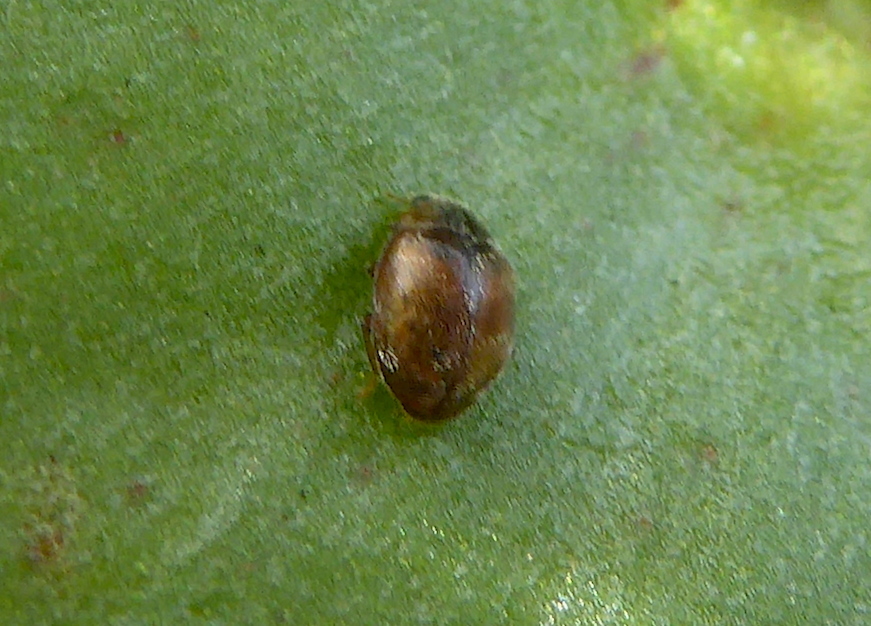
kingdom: Animalia
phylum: Arthropoda
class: Insecta
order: Coleoptera
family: Coccinellidae
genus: Scymnus
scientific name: Scymnus
